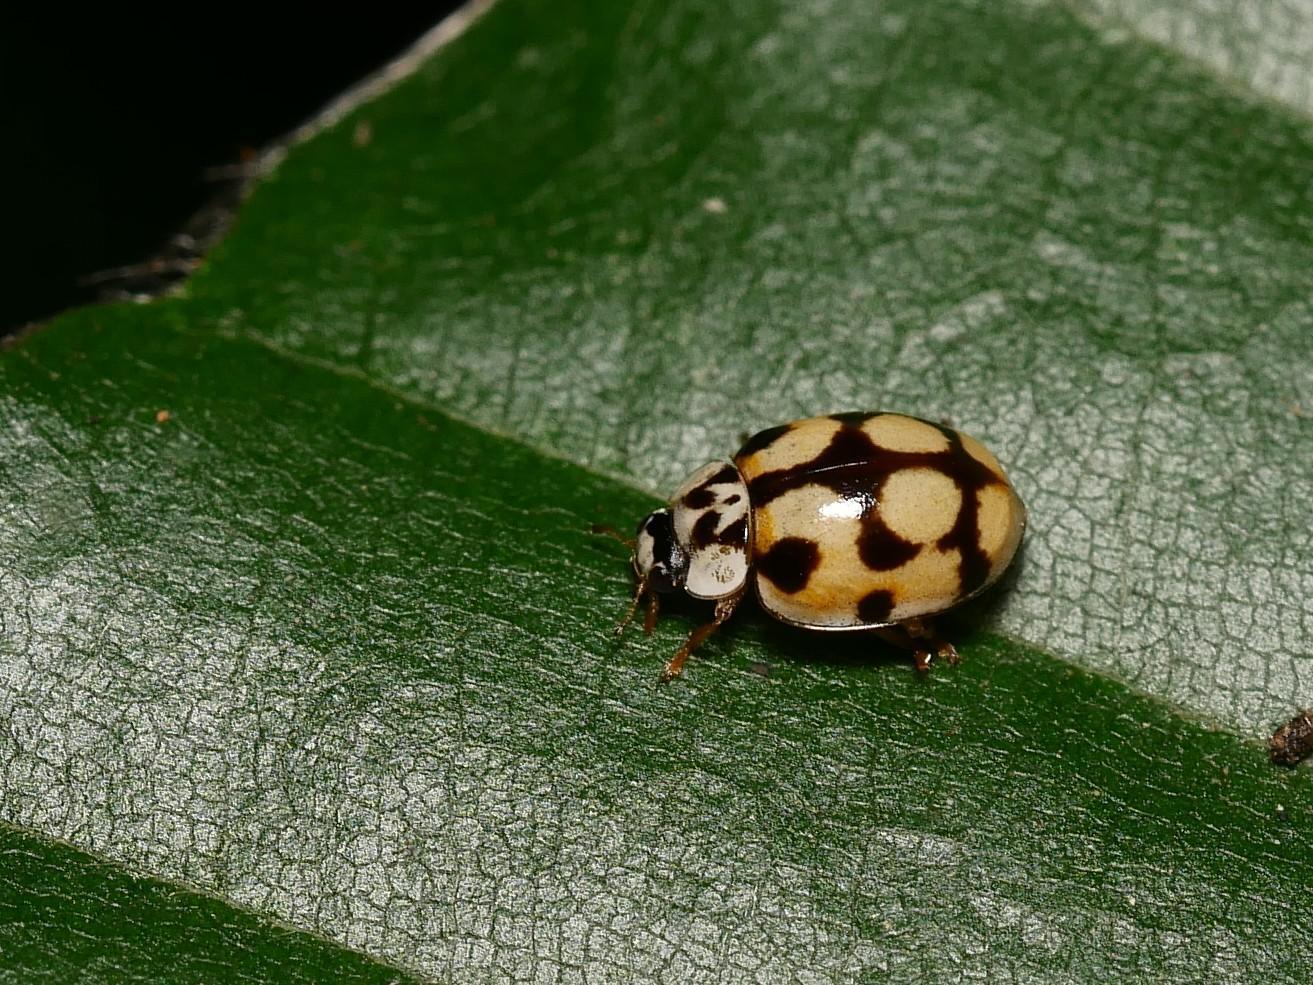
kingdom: Animalia
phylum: Arthropoda
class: Insecta
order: Coleoptera
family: Coccinellidae
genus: Adalia
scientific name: Adalia decempunctata
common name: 10-spot ladybird
